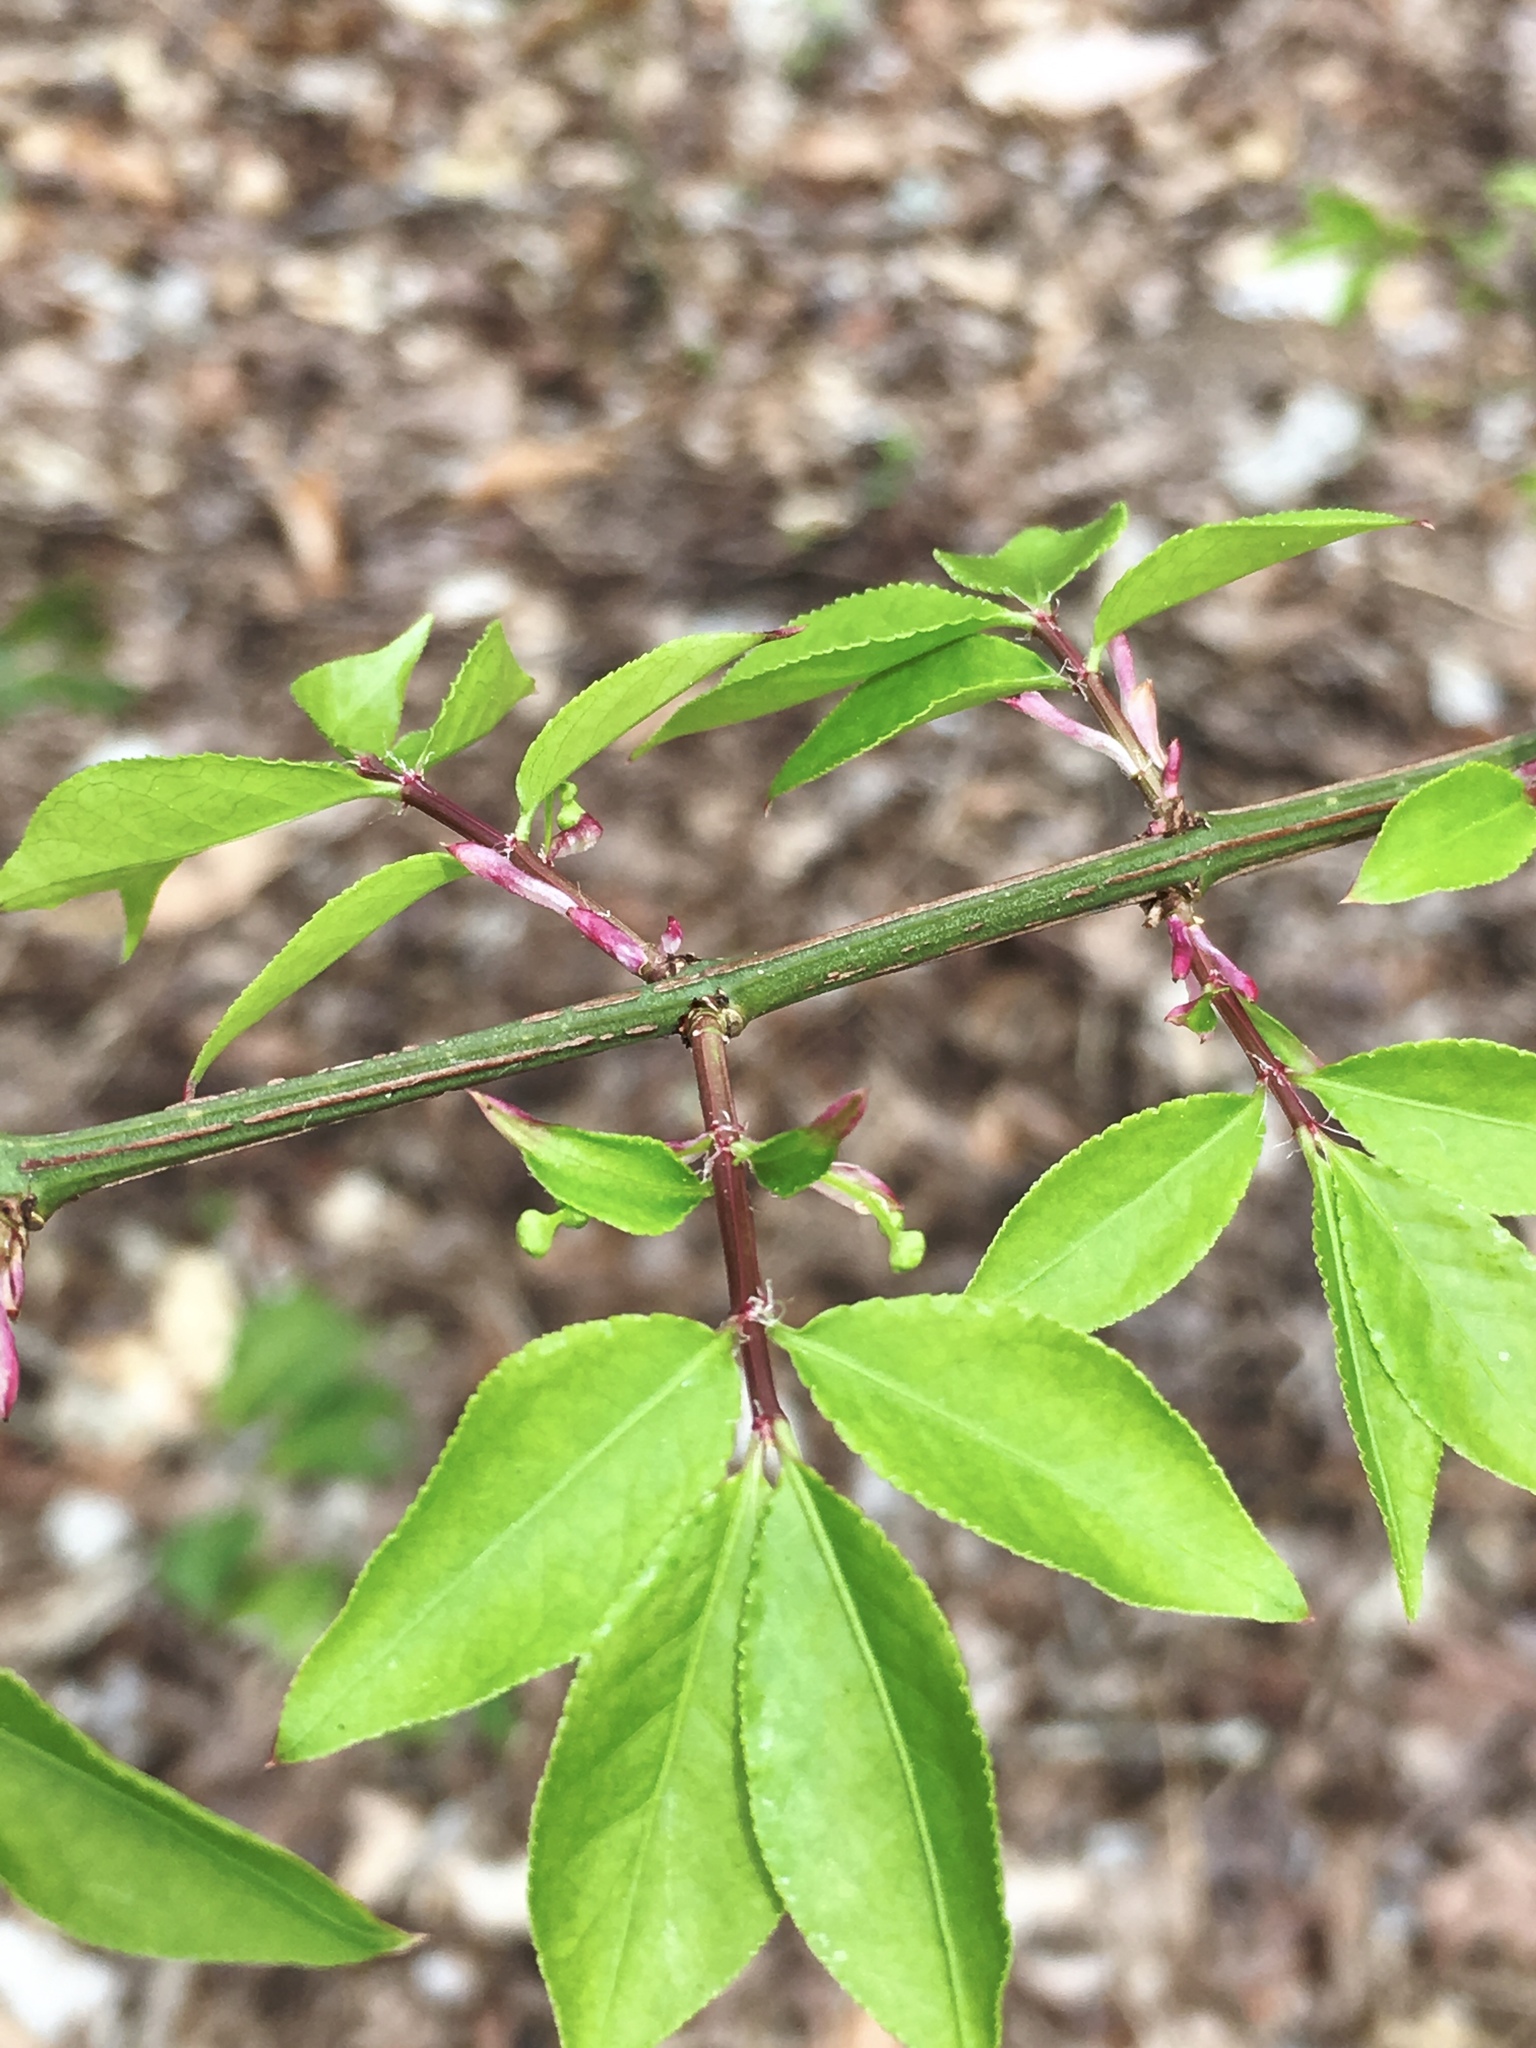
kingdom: Plantae
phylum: Tracheophyta
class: Magnoliopsida
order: Celastrales
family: Celastraceae
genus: Euonymus
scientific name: Euonymus alatus
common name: Winged euonymus
